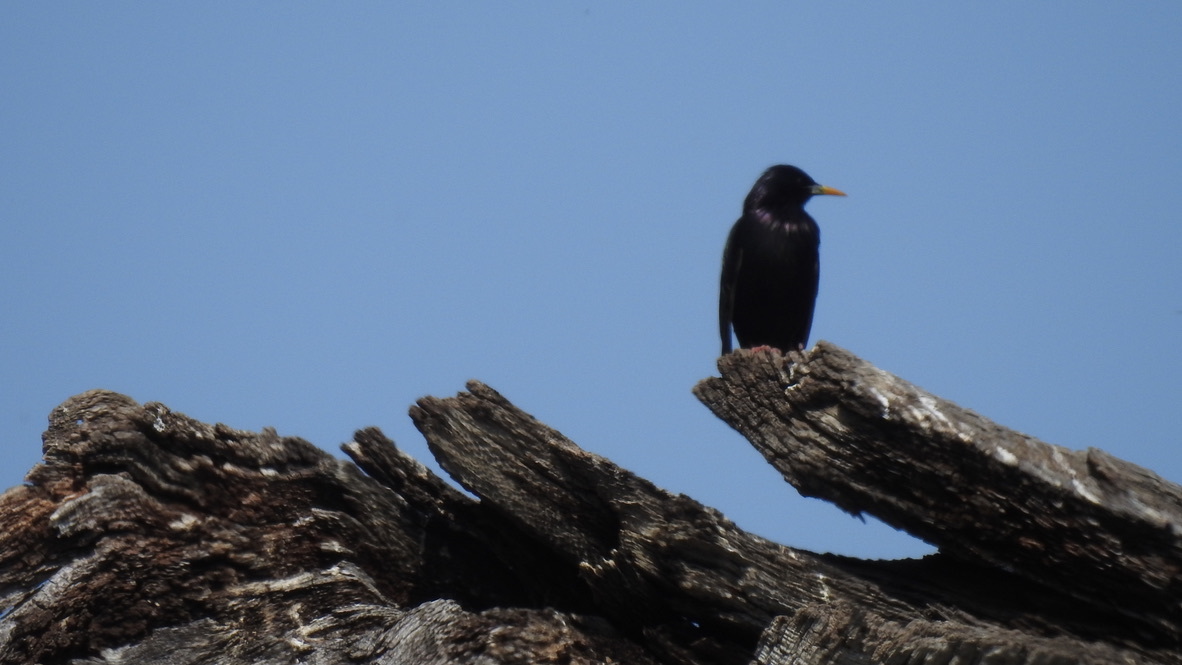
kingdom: Animalia
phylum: Chordata
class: Aves
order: Passeriformes
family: Sturnidae
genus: Sturnus
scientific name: Sturnus vulgaris
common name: Common starling
